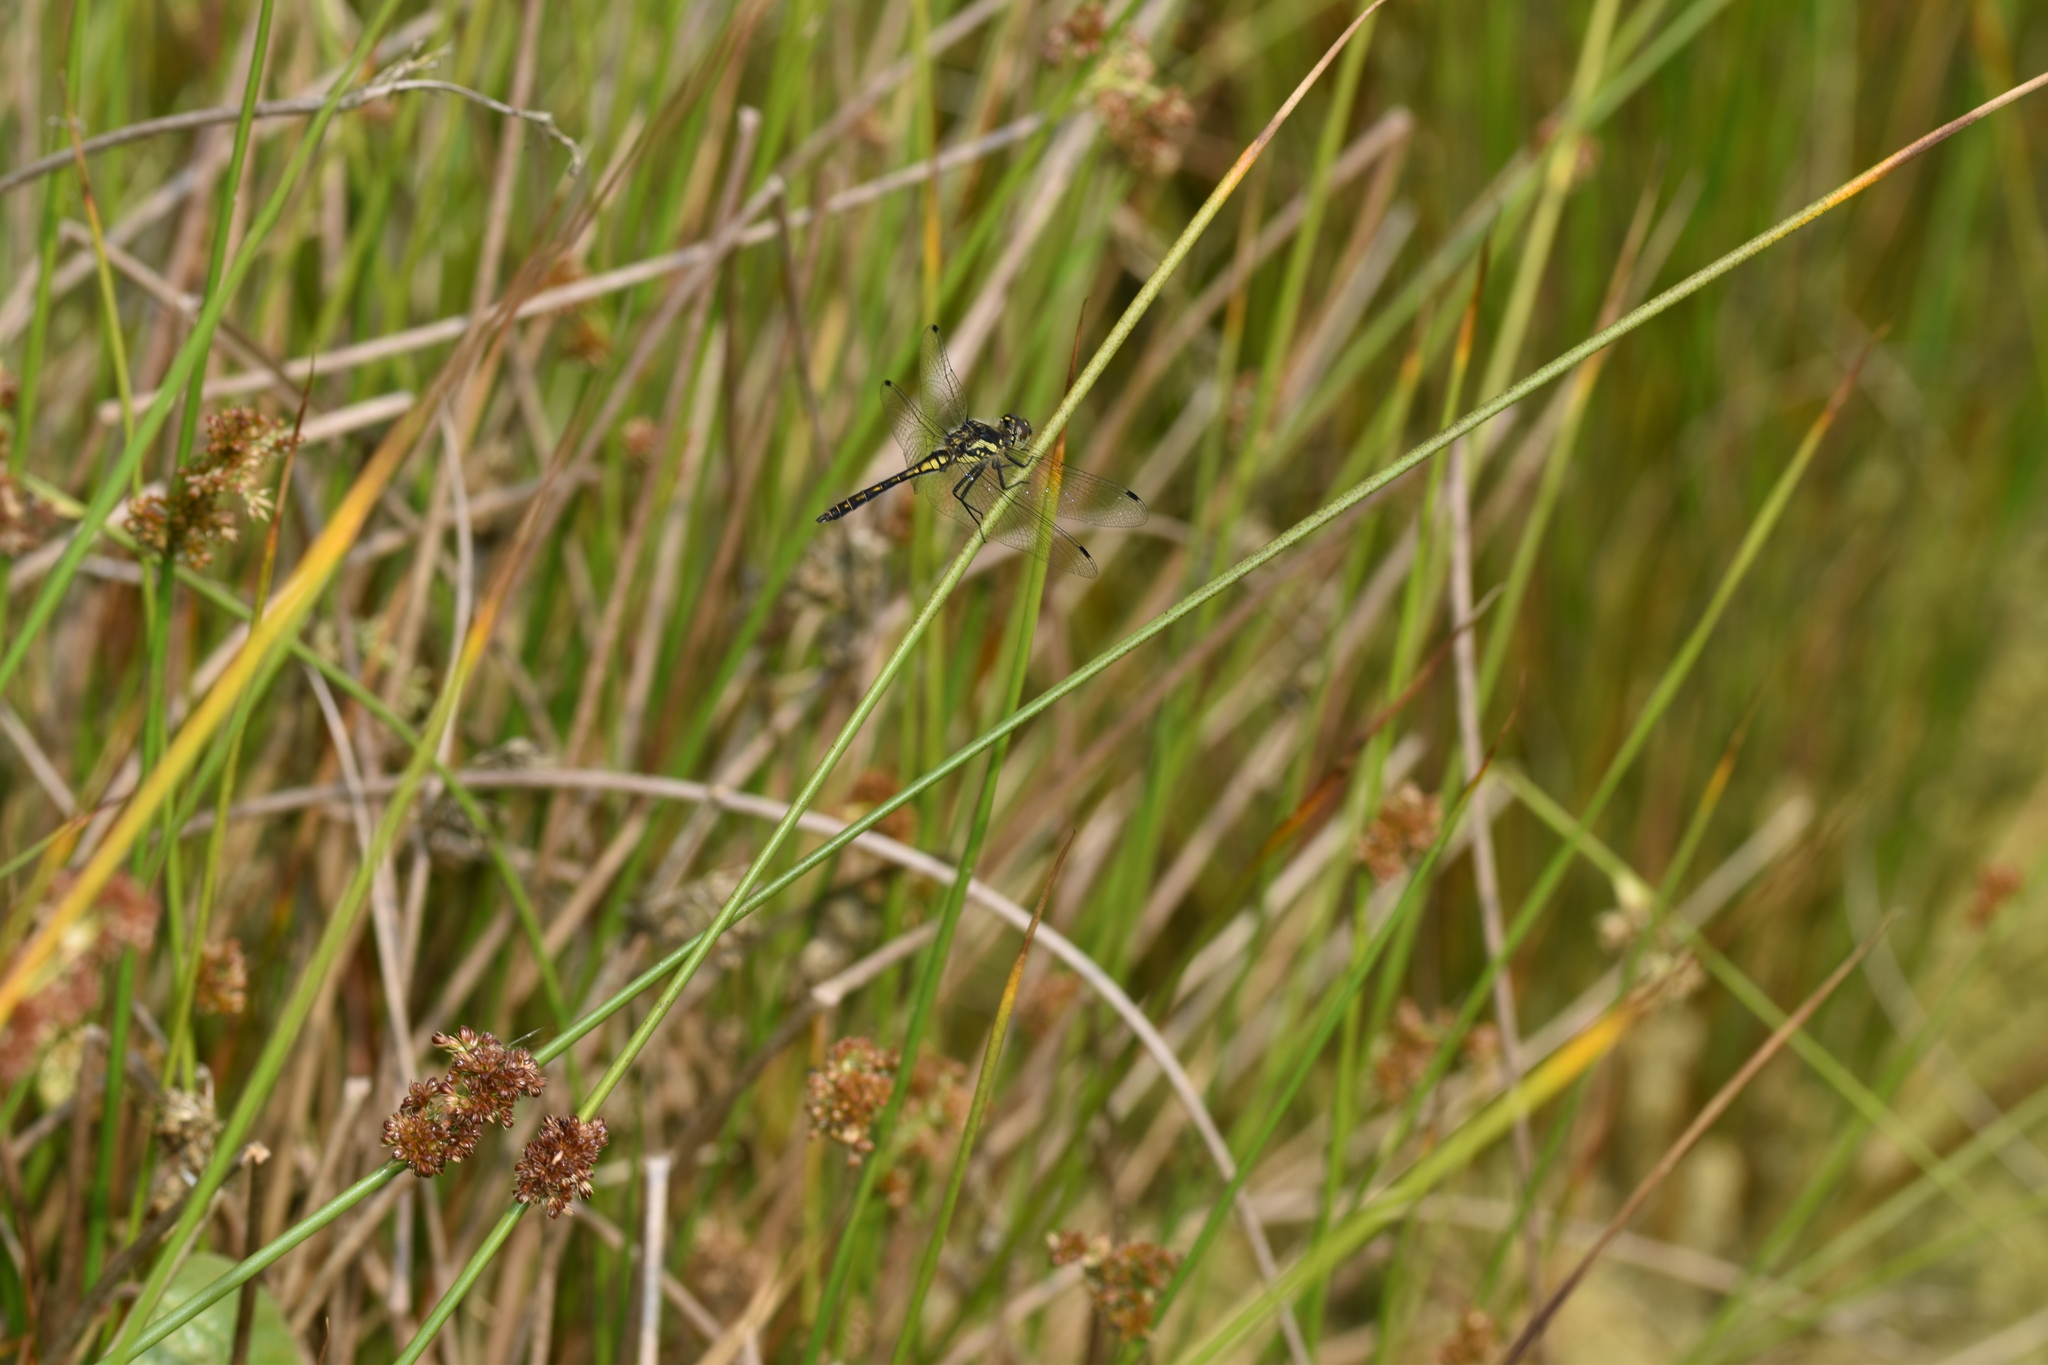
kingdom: Animalia
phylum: Arthropoda
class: Insecta
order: Odonata
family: Libellulidae
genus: Sympetrum
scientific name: Sympetrum danae
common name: Black darter
